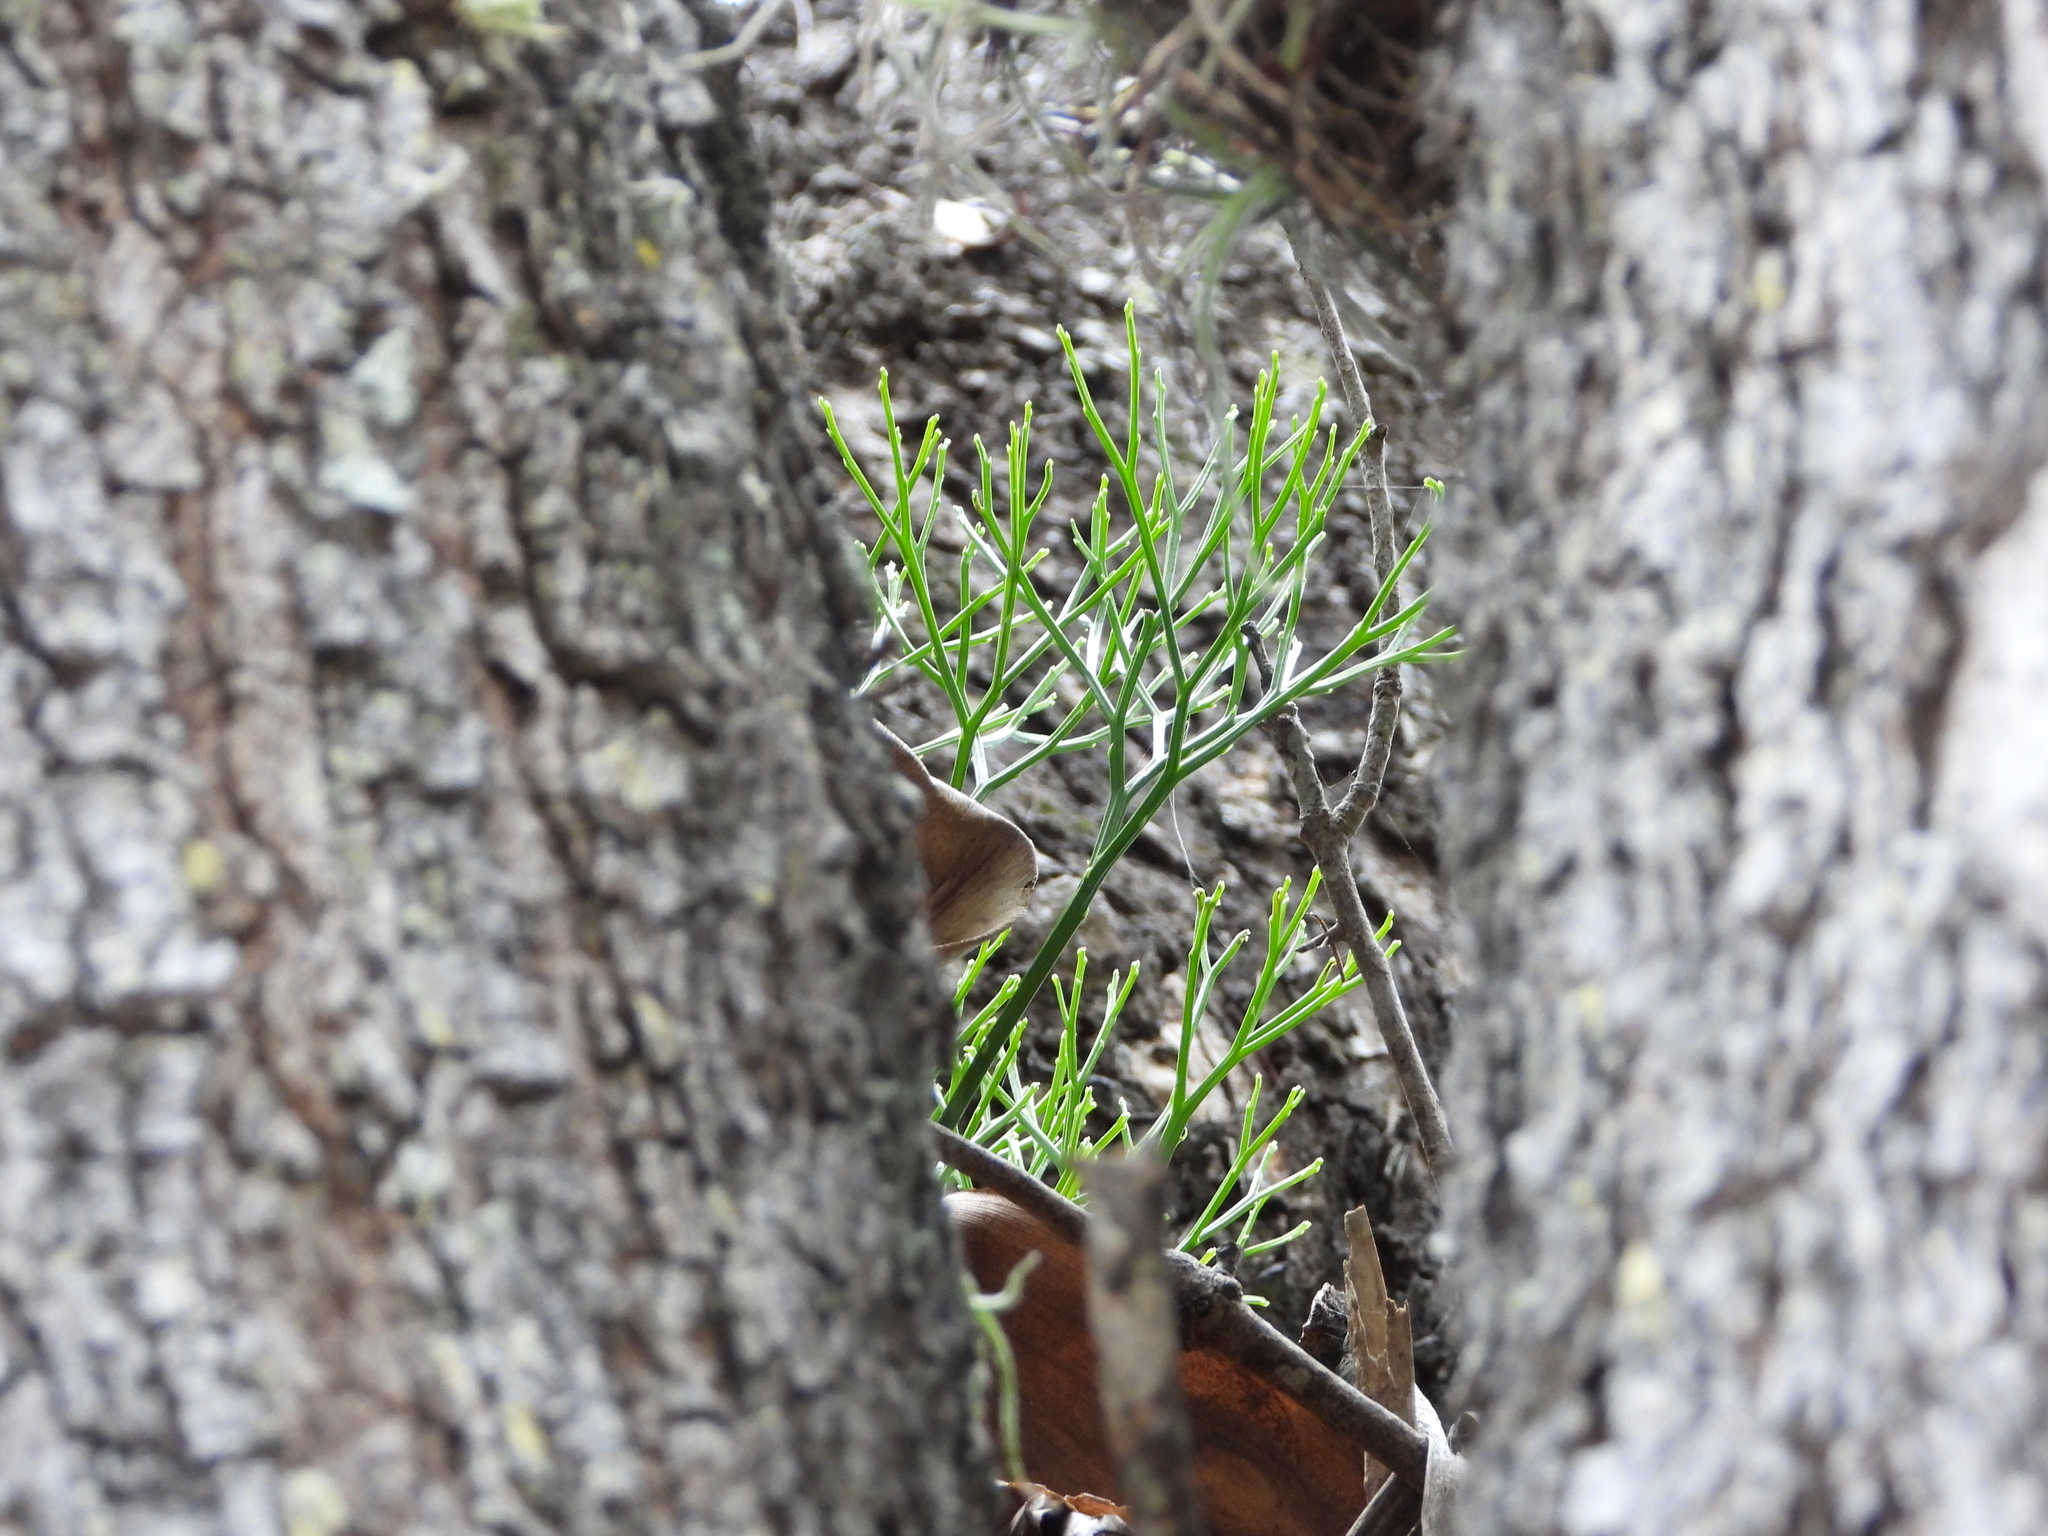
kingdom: Plantae
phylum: Tracheophyta
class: Polypodiopsida
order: Psilotales
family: Psilotaceae
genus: Psilotum
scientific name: Psilotum nudum
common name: Skeleton fork fern
